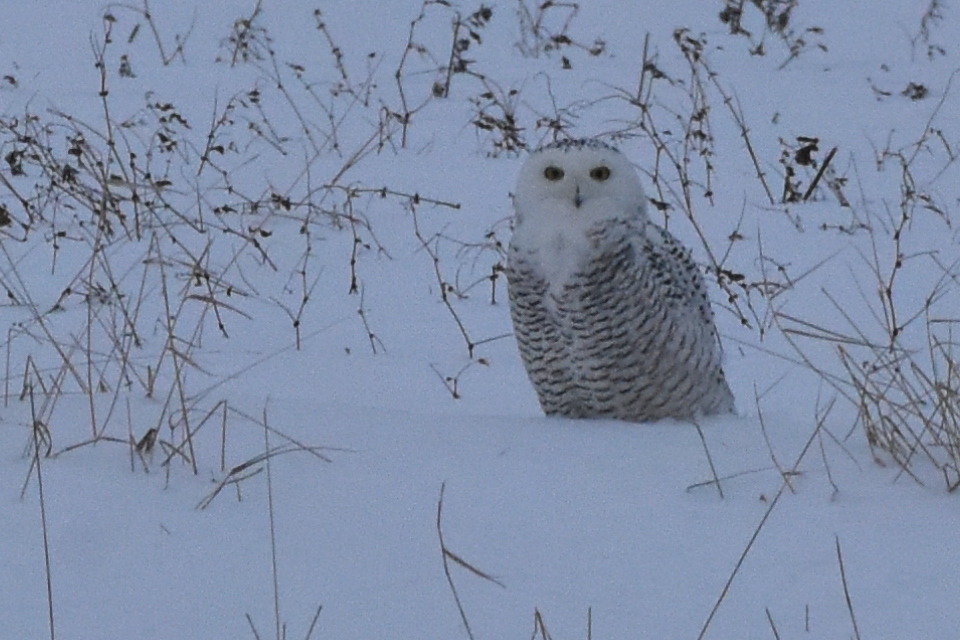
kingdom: Animalia
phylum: Chordata
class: Aves
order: Strigiformes
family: Strigidae
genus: Bubo
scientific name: Bubo scandiacus
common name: Snowy owl
